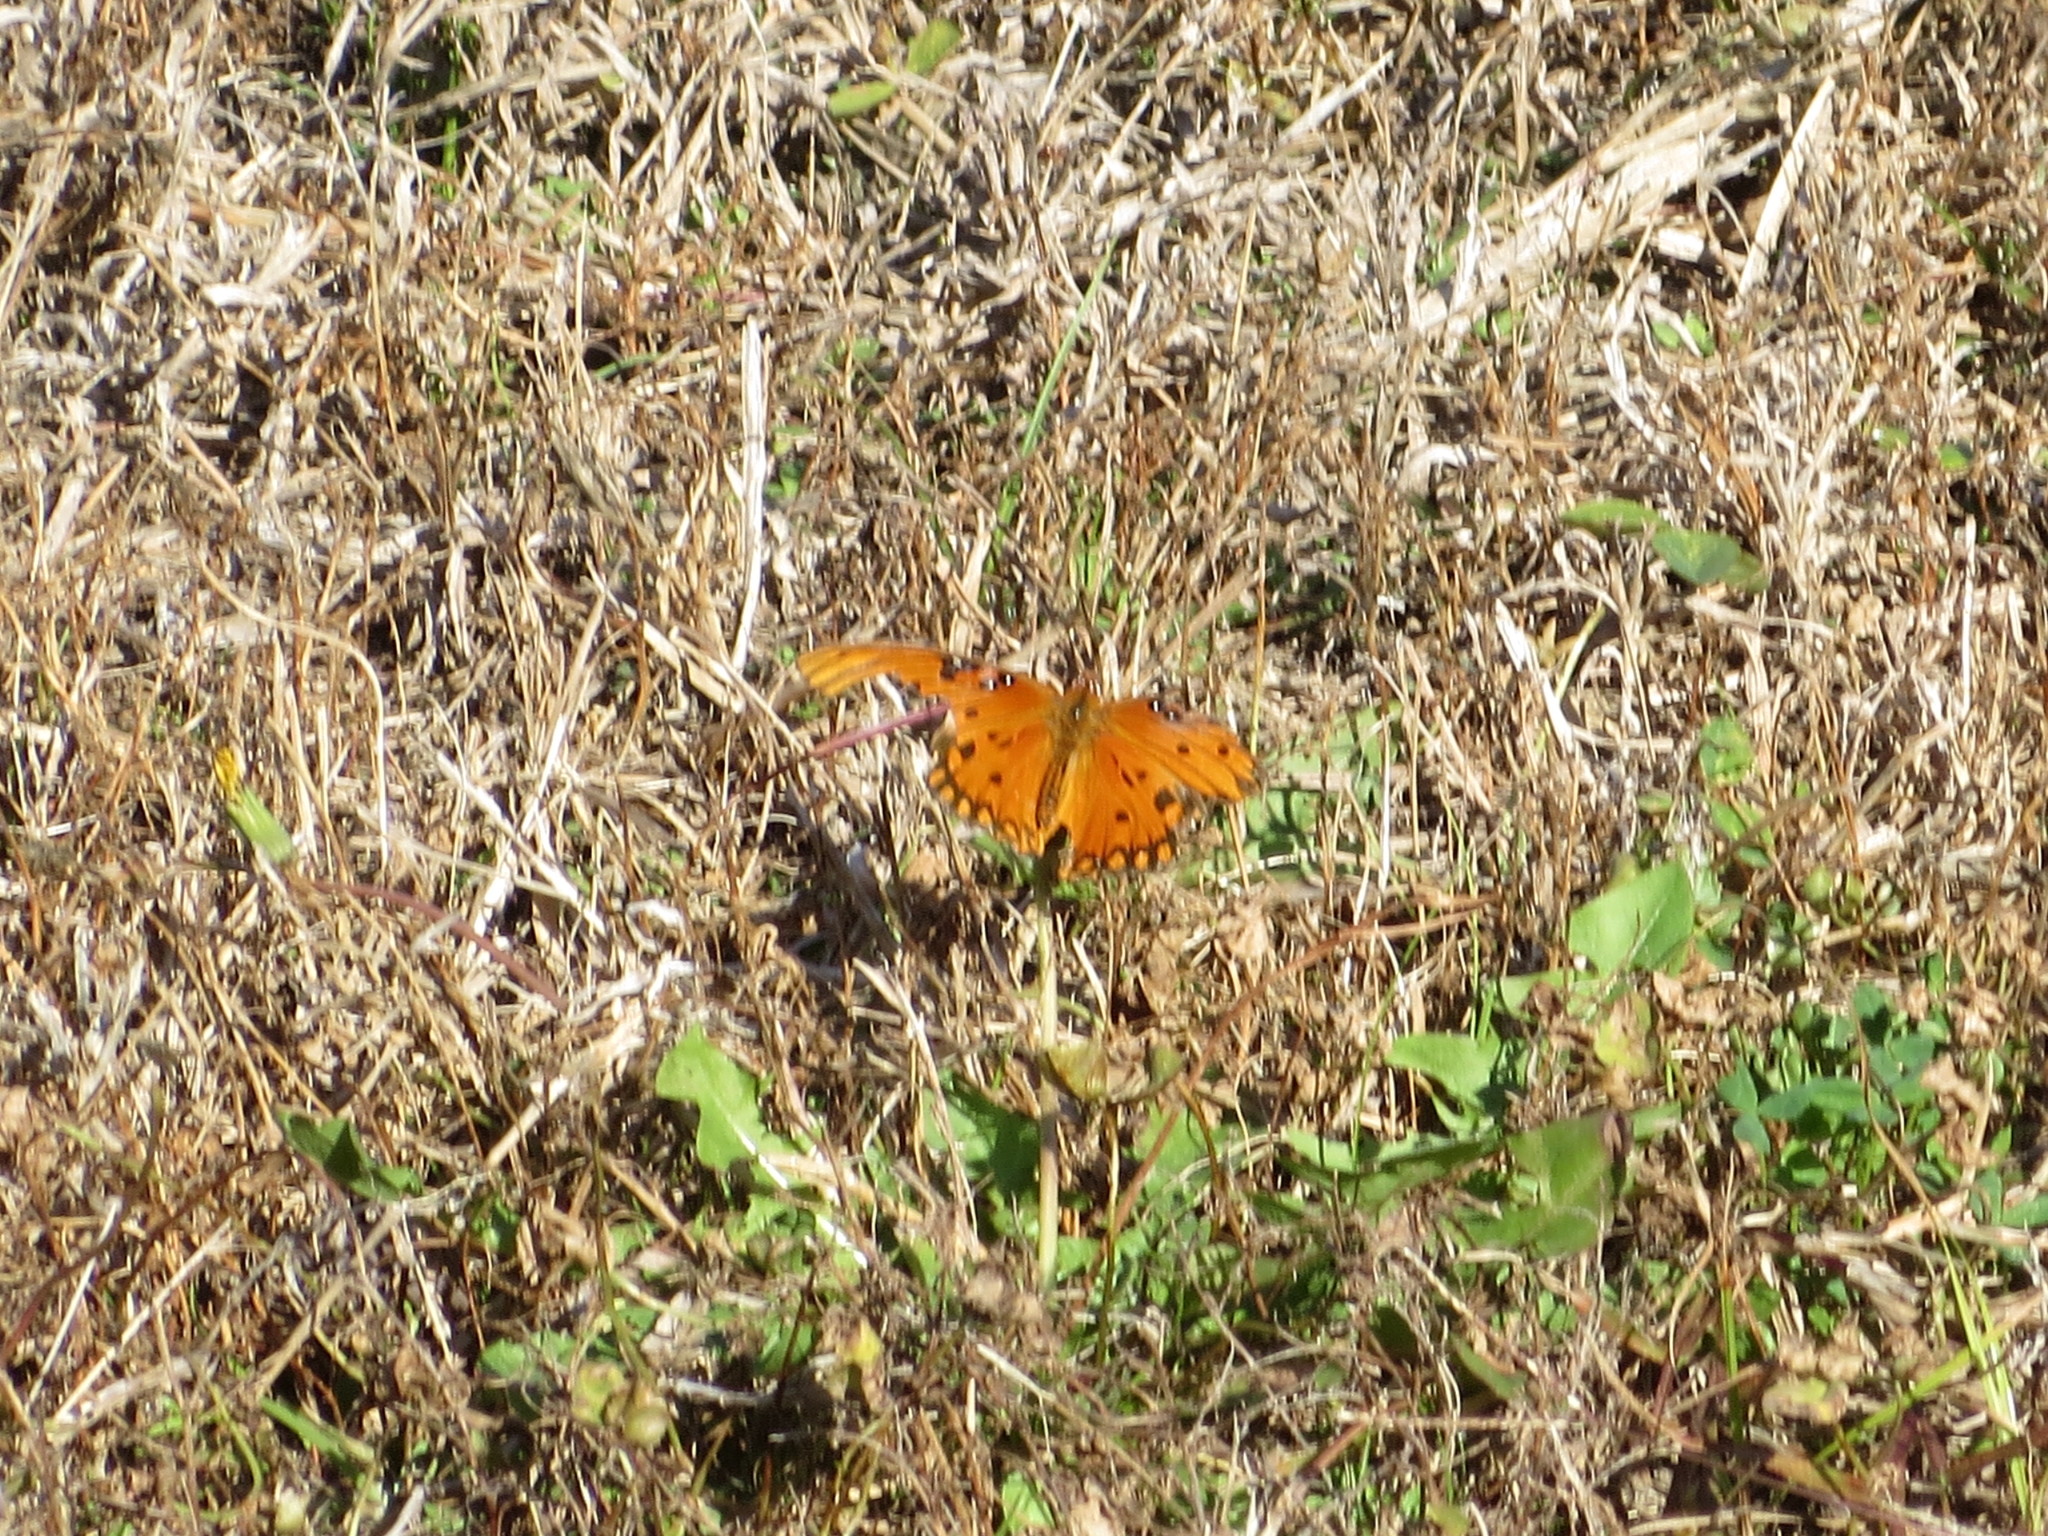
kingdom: Animalia
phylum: Arthropoda
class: Insecta
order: Lepidoptera
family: Nymphalidae
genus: Dione
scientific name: Dione vanillae
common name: Gulf fritillary
